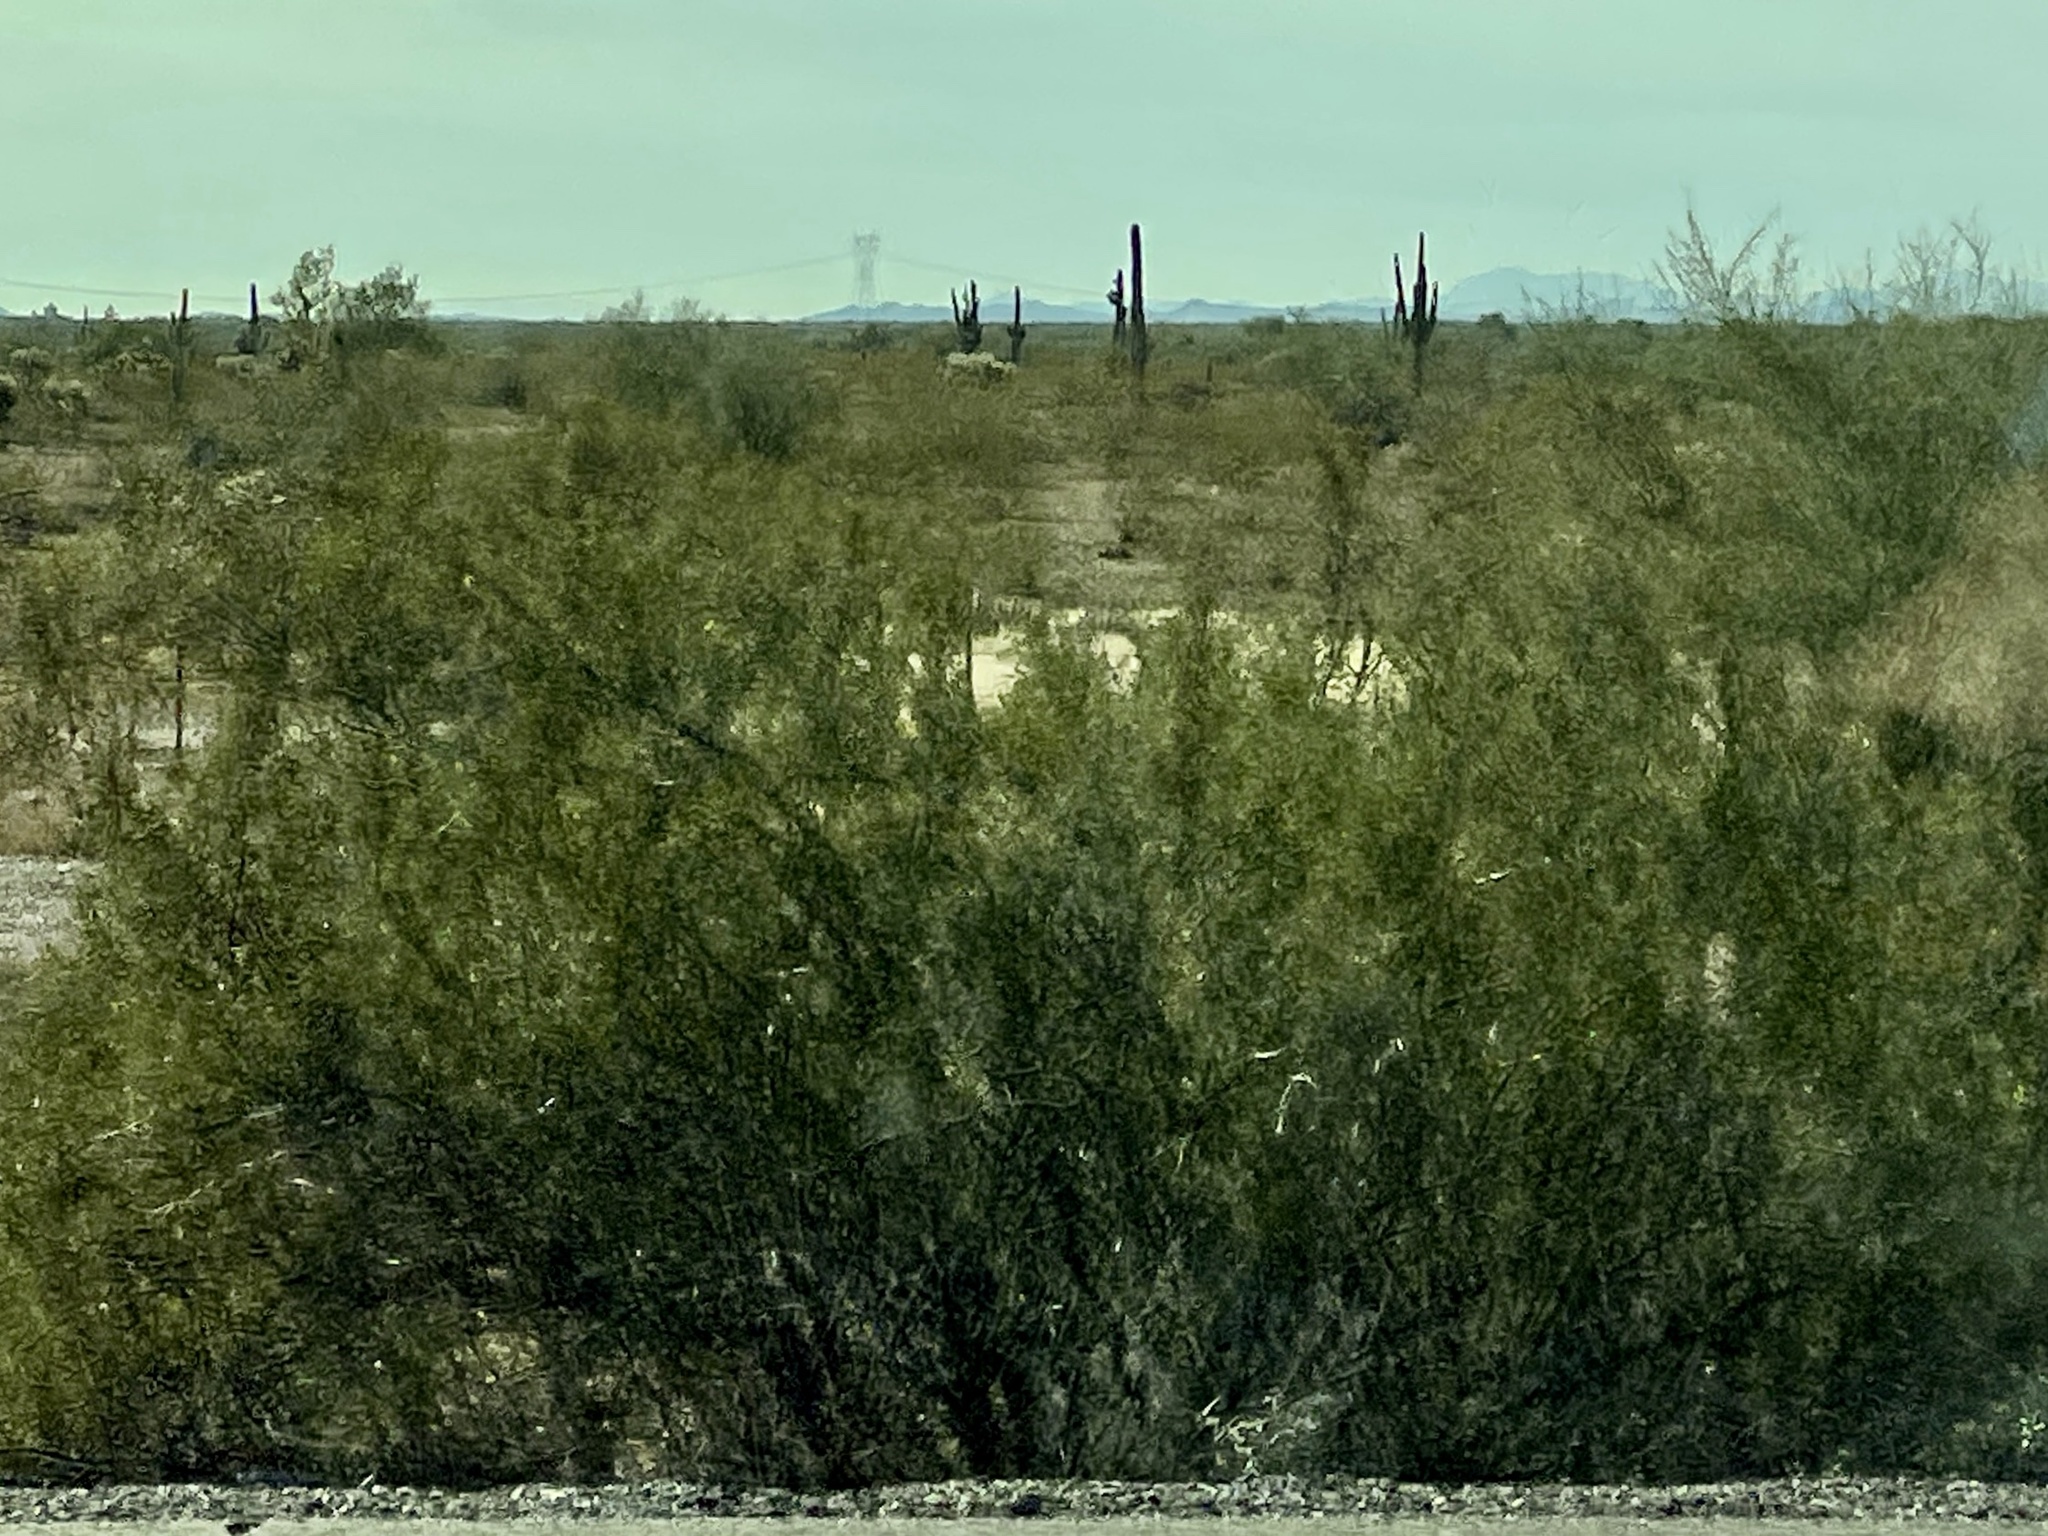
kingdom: Plantae
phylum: Tracheophyta
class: Magnoliopsida
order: Zygophyllales
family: Zygophyllaceae
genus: Larrea
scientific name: Larrea tridentata
